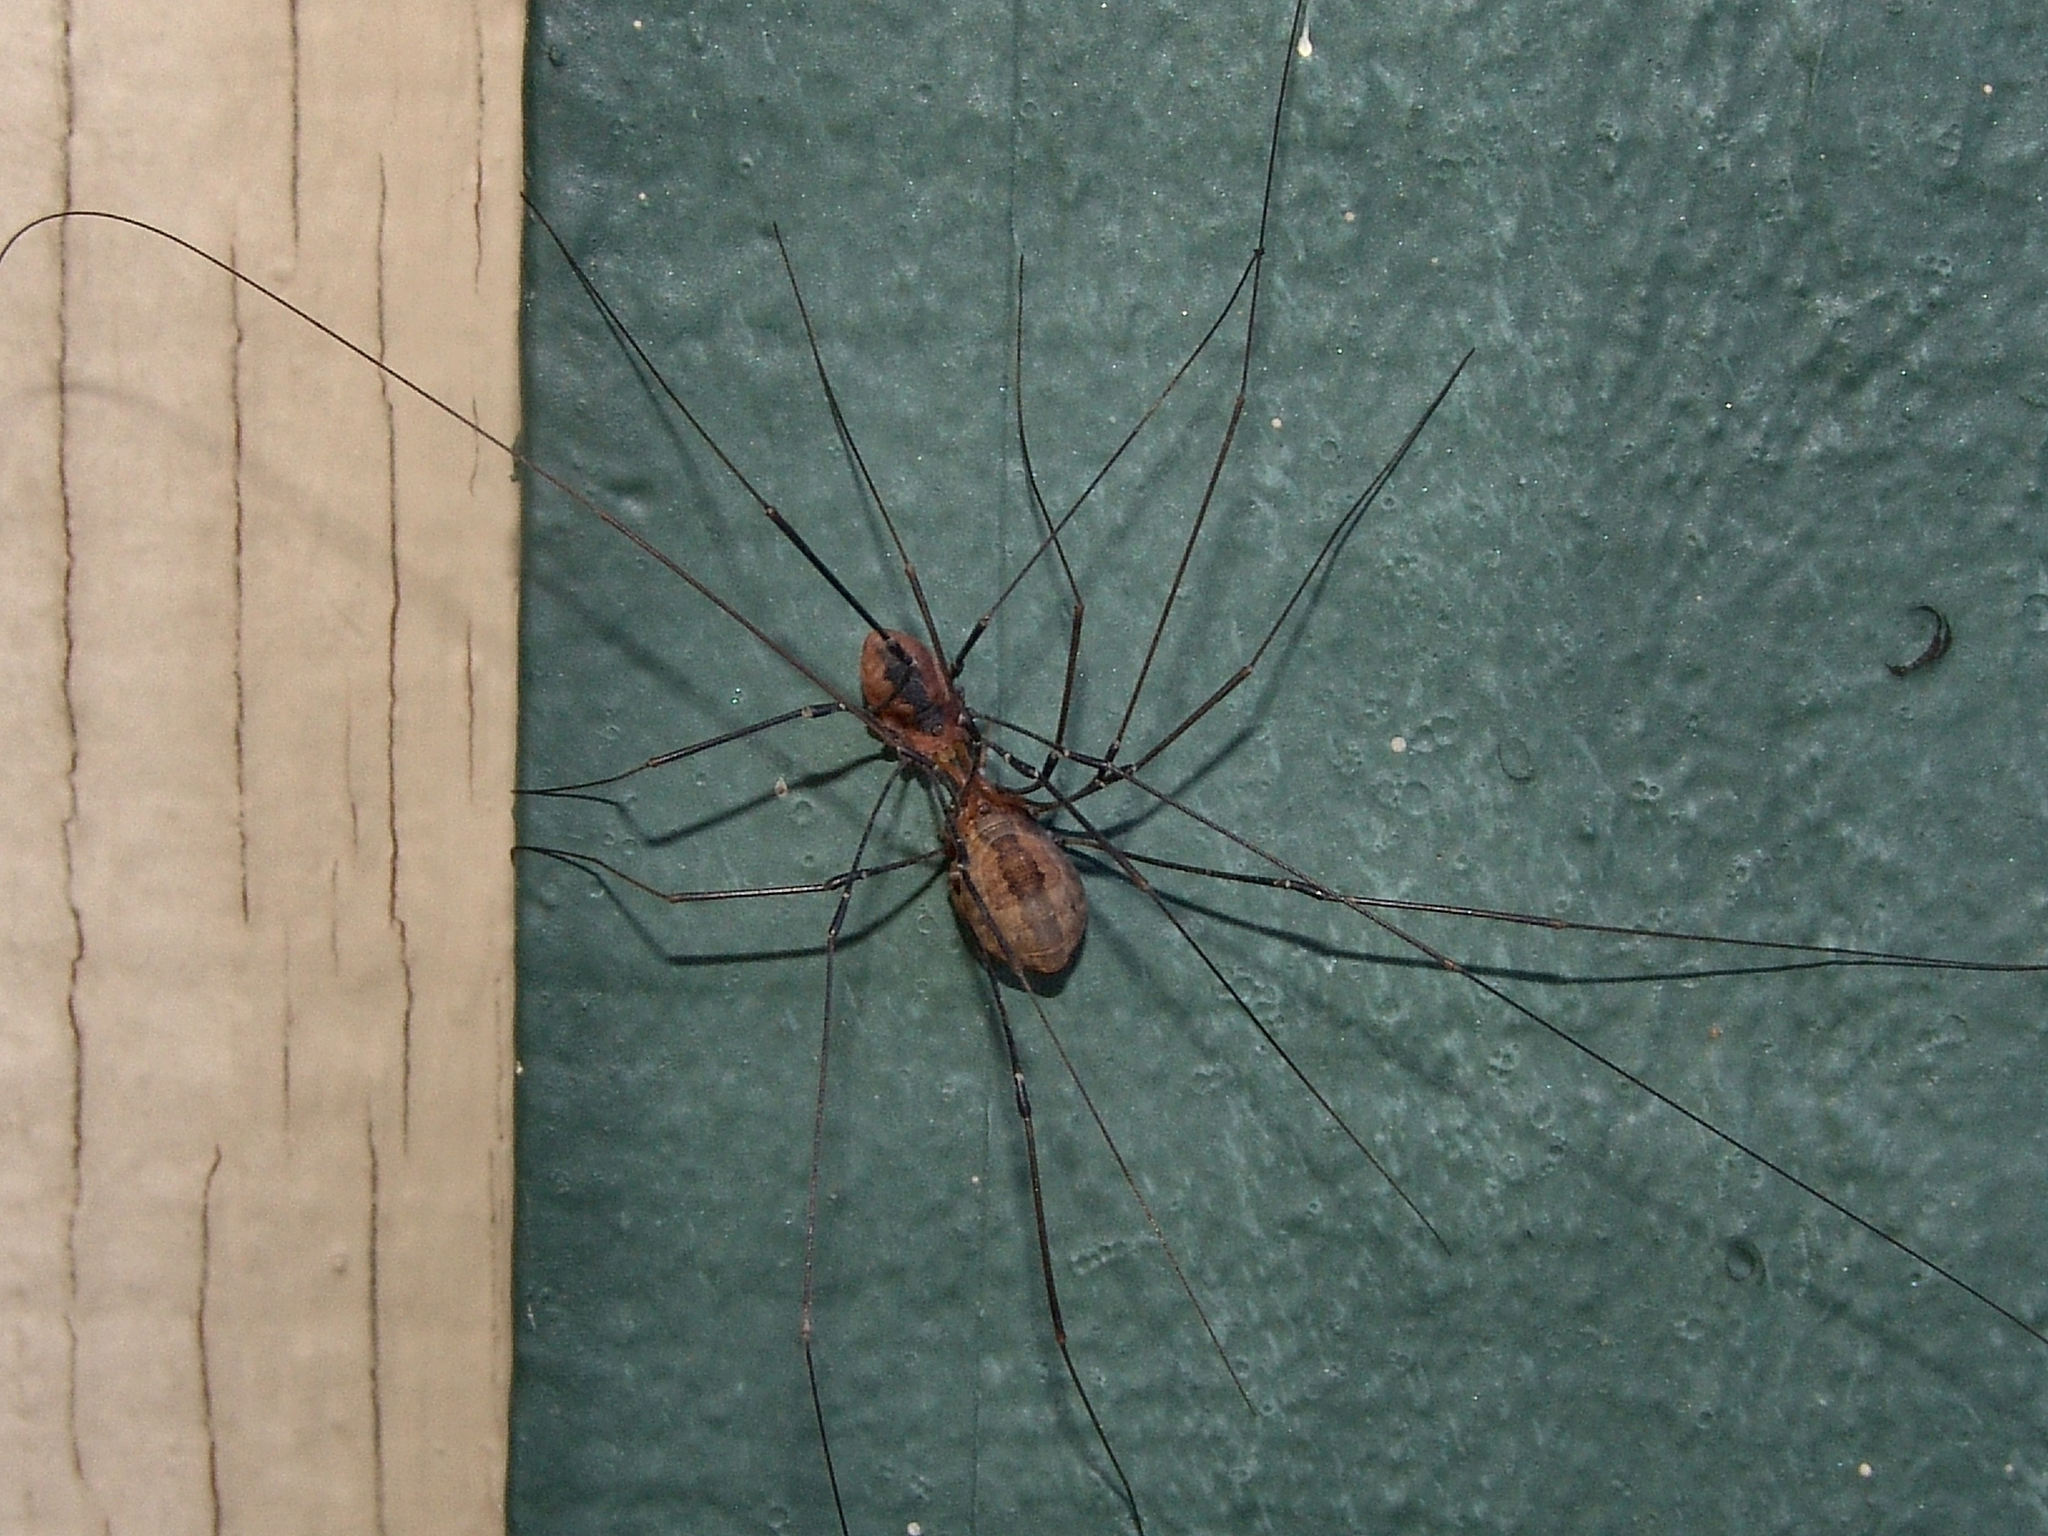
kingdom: Animalia
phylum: Arthropoda
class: Arachnida
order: Opiliones
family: Sclerosomatidae
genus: Leiobunum
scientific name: Leiobunum vittatum
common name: Eastern harvestman
